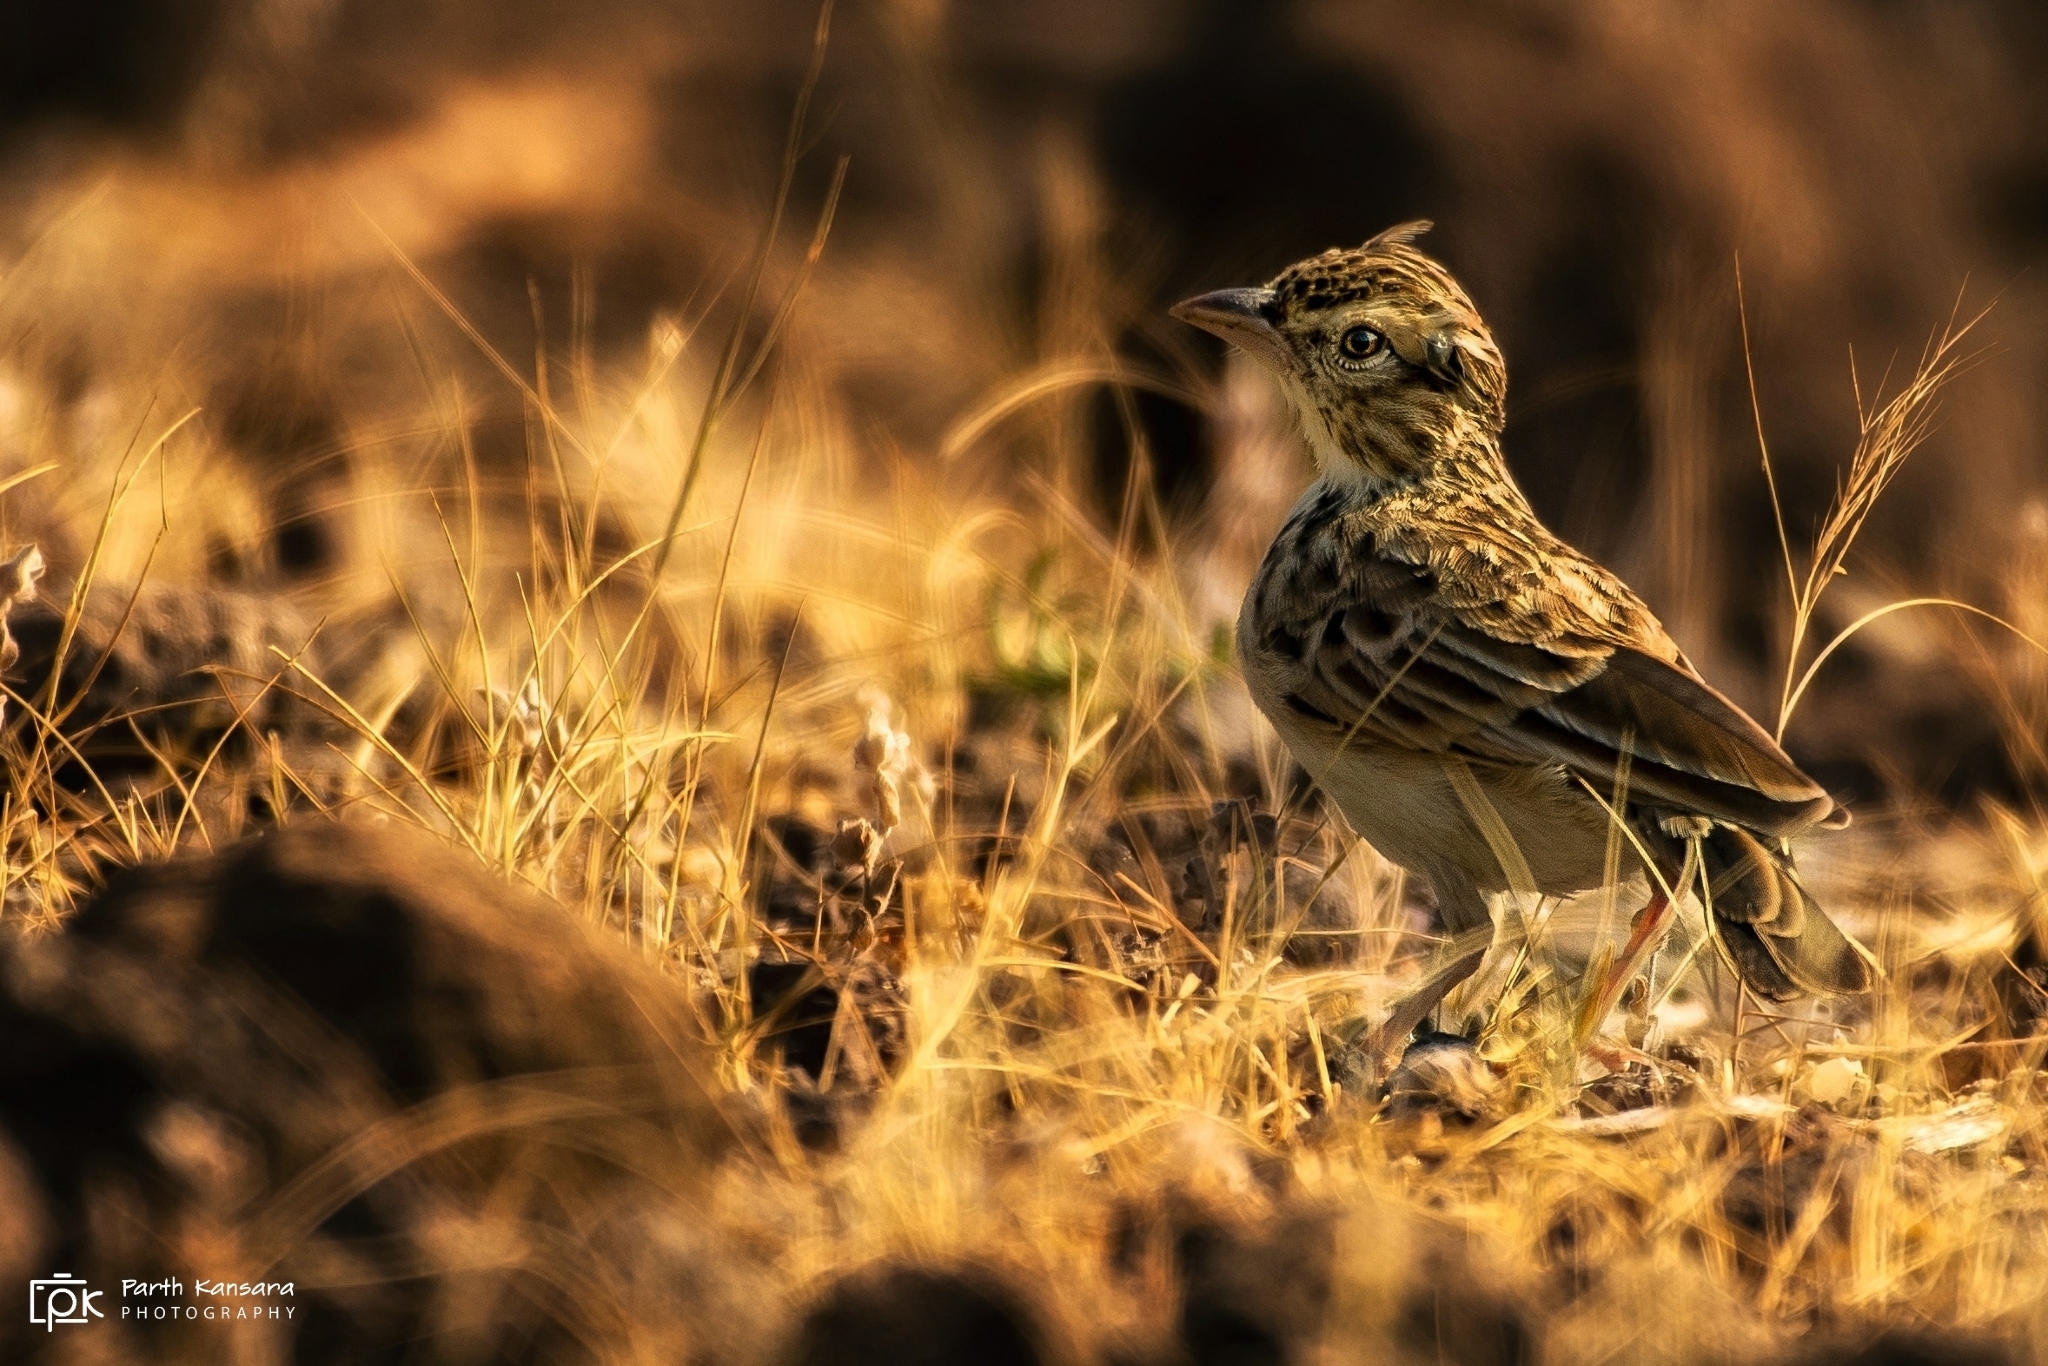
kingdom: Animalia
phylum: Chordata
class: Aves
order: Passeriformes
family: Alaudidae
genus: Mirafra
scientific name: Mirafra erythroptera
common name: Indian bush lark
